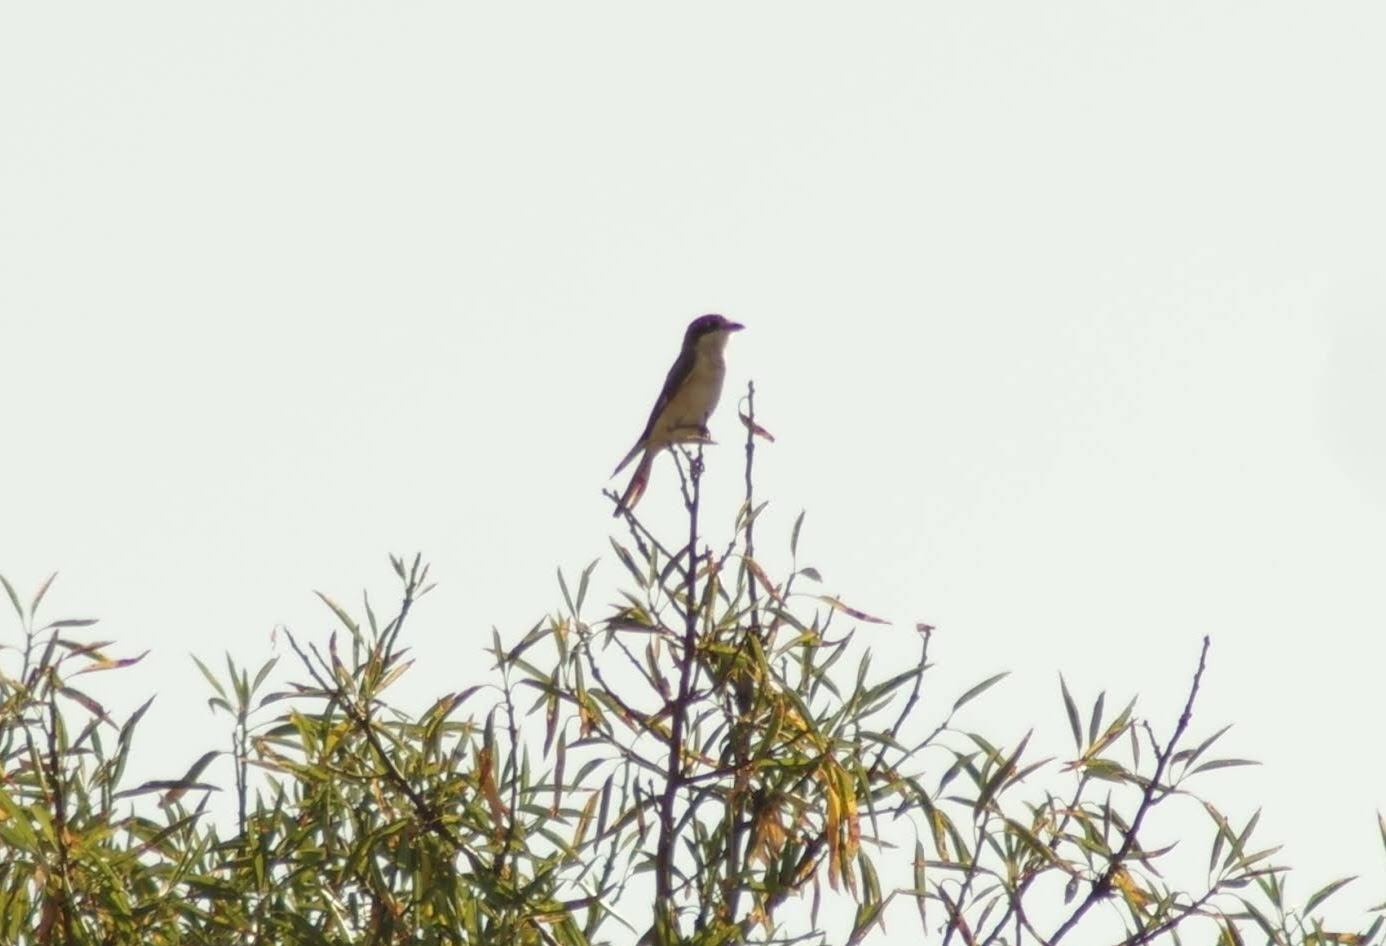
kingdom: Animalia
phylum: Chordata
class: Aves
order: Passeriformes
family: Laniidae
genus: Lanius
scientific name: Lanius senator
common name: Woodchat shrike
